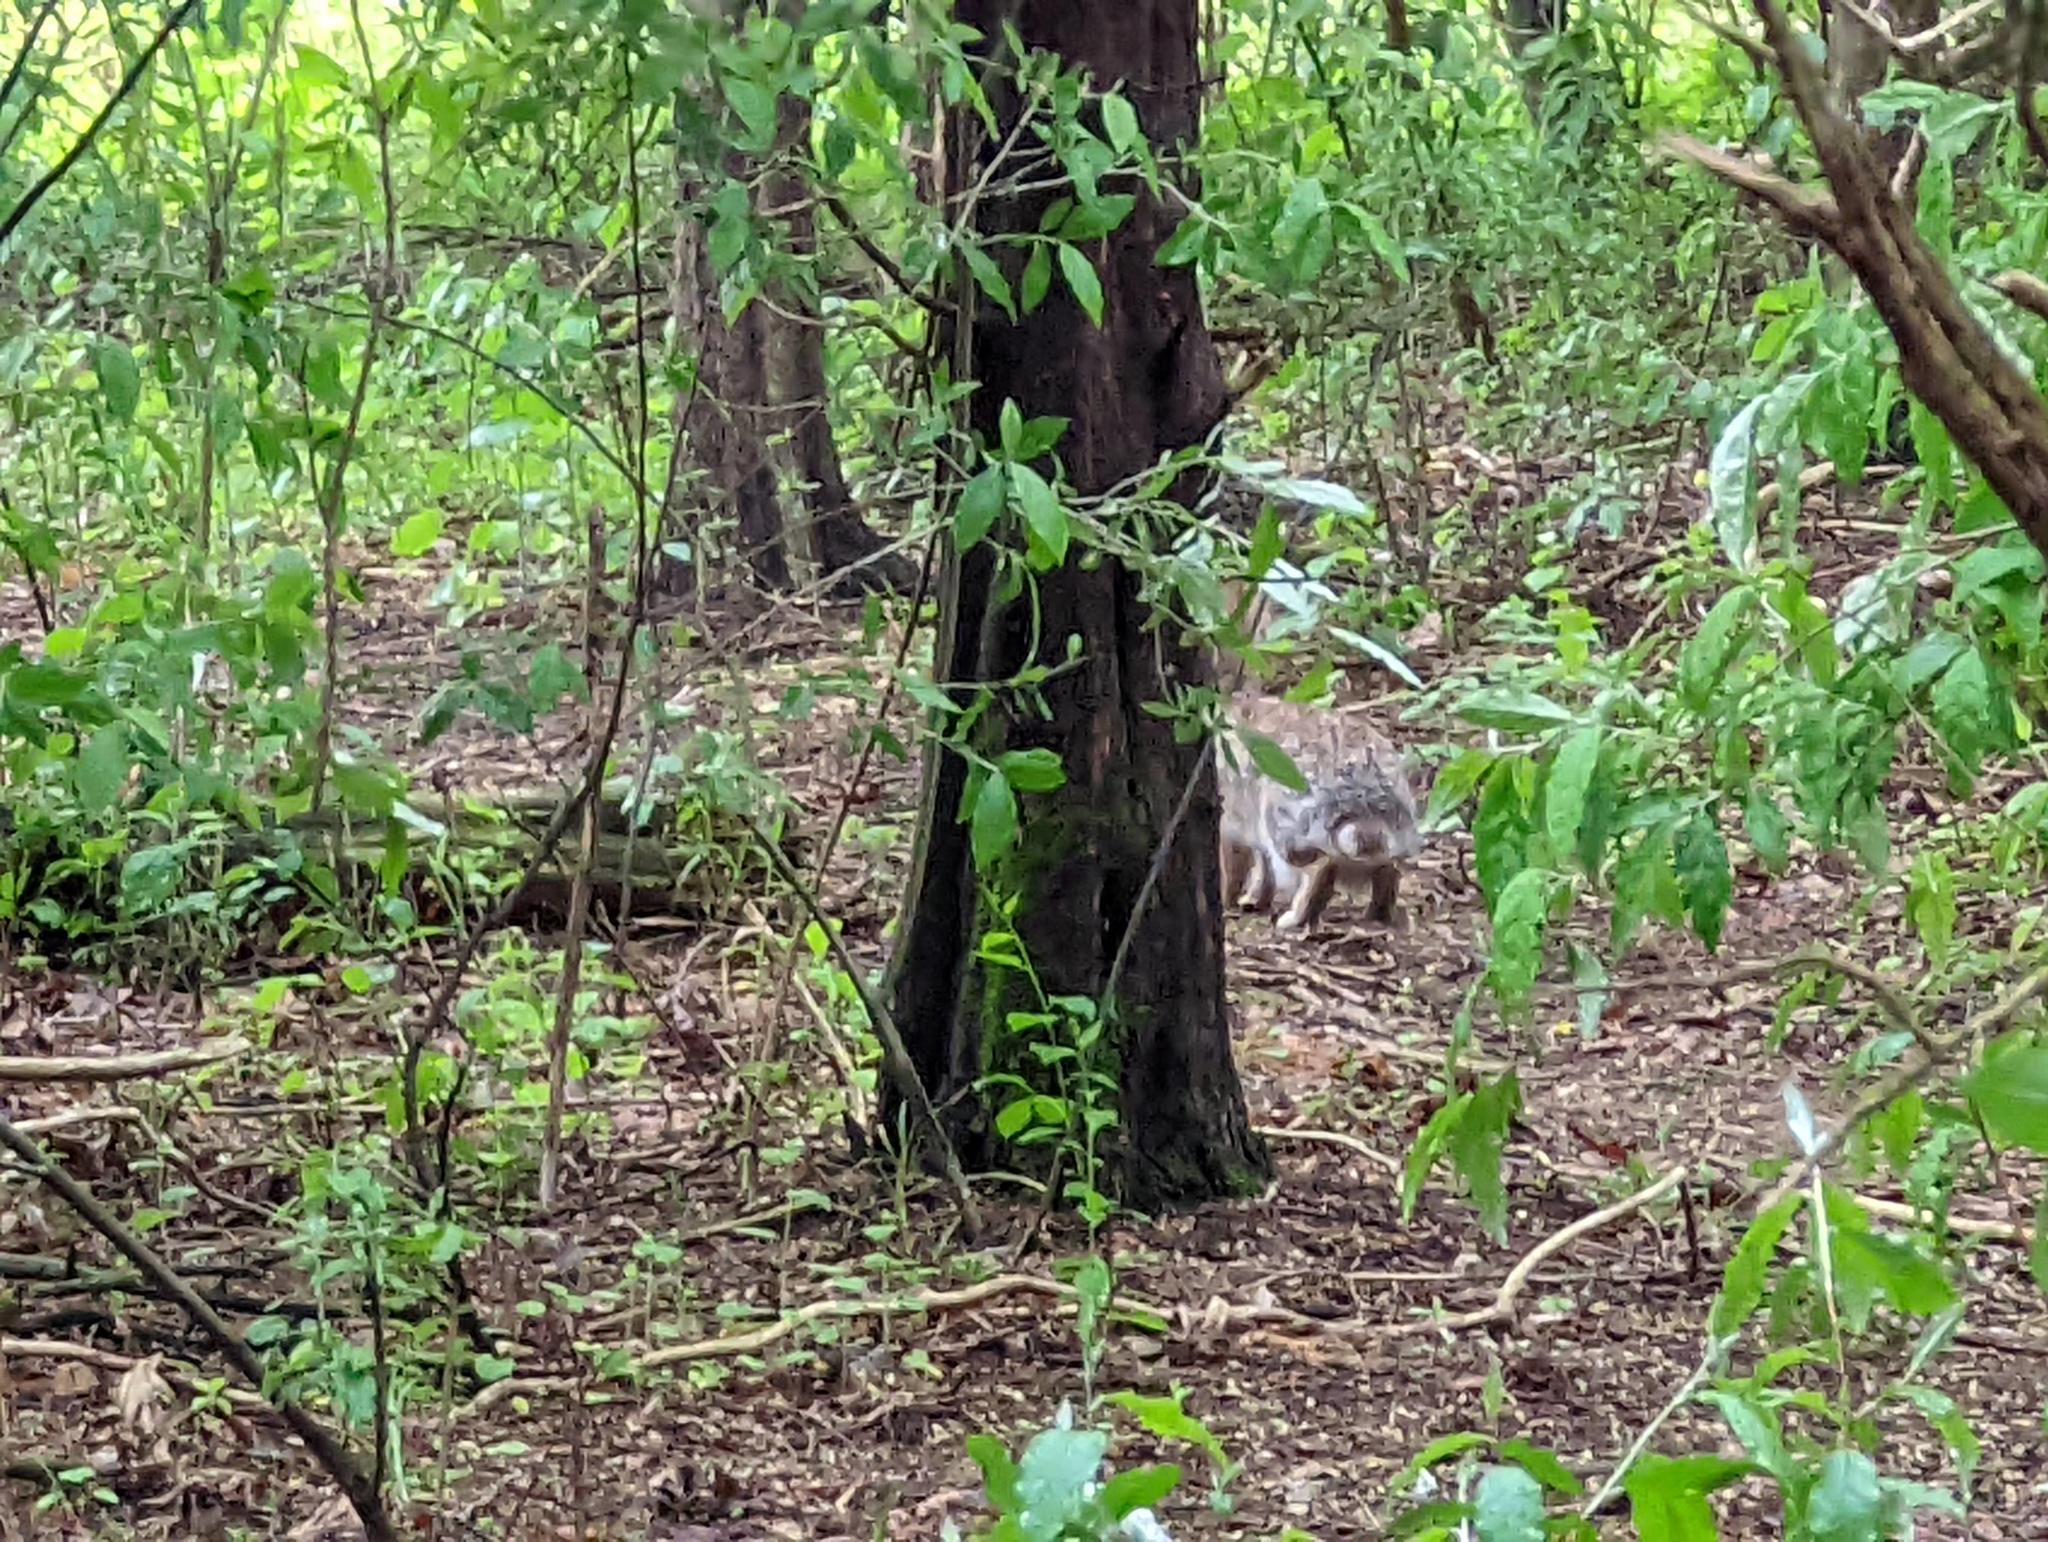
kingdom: Animalia
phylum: Chordata
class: Mammalia
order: Lagomorpha
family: Leporidae
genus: Sylvilagus
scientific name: Sylvilagus floridanus
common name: Eastern cottontail
